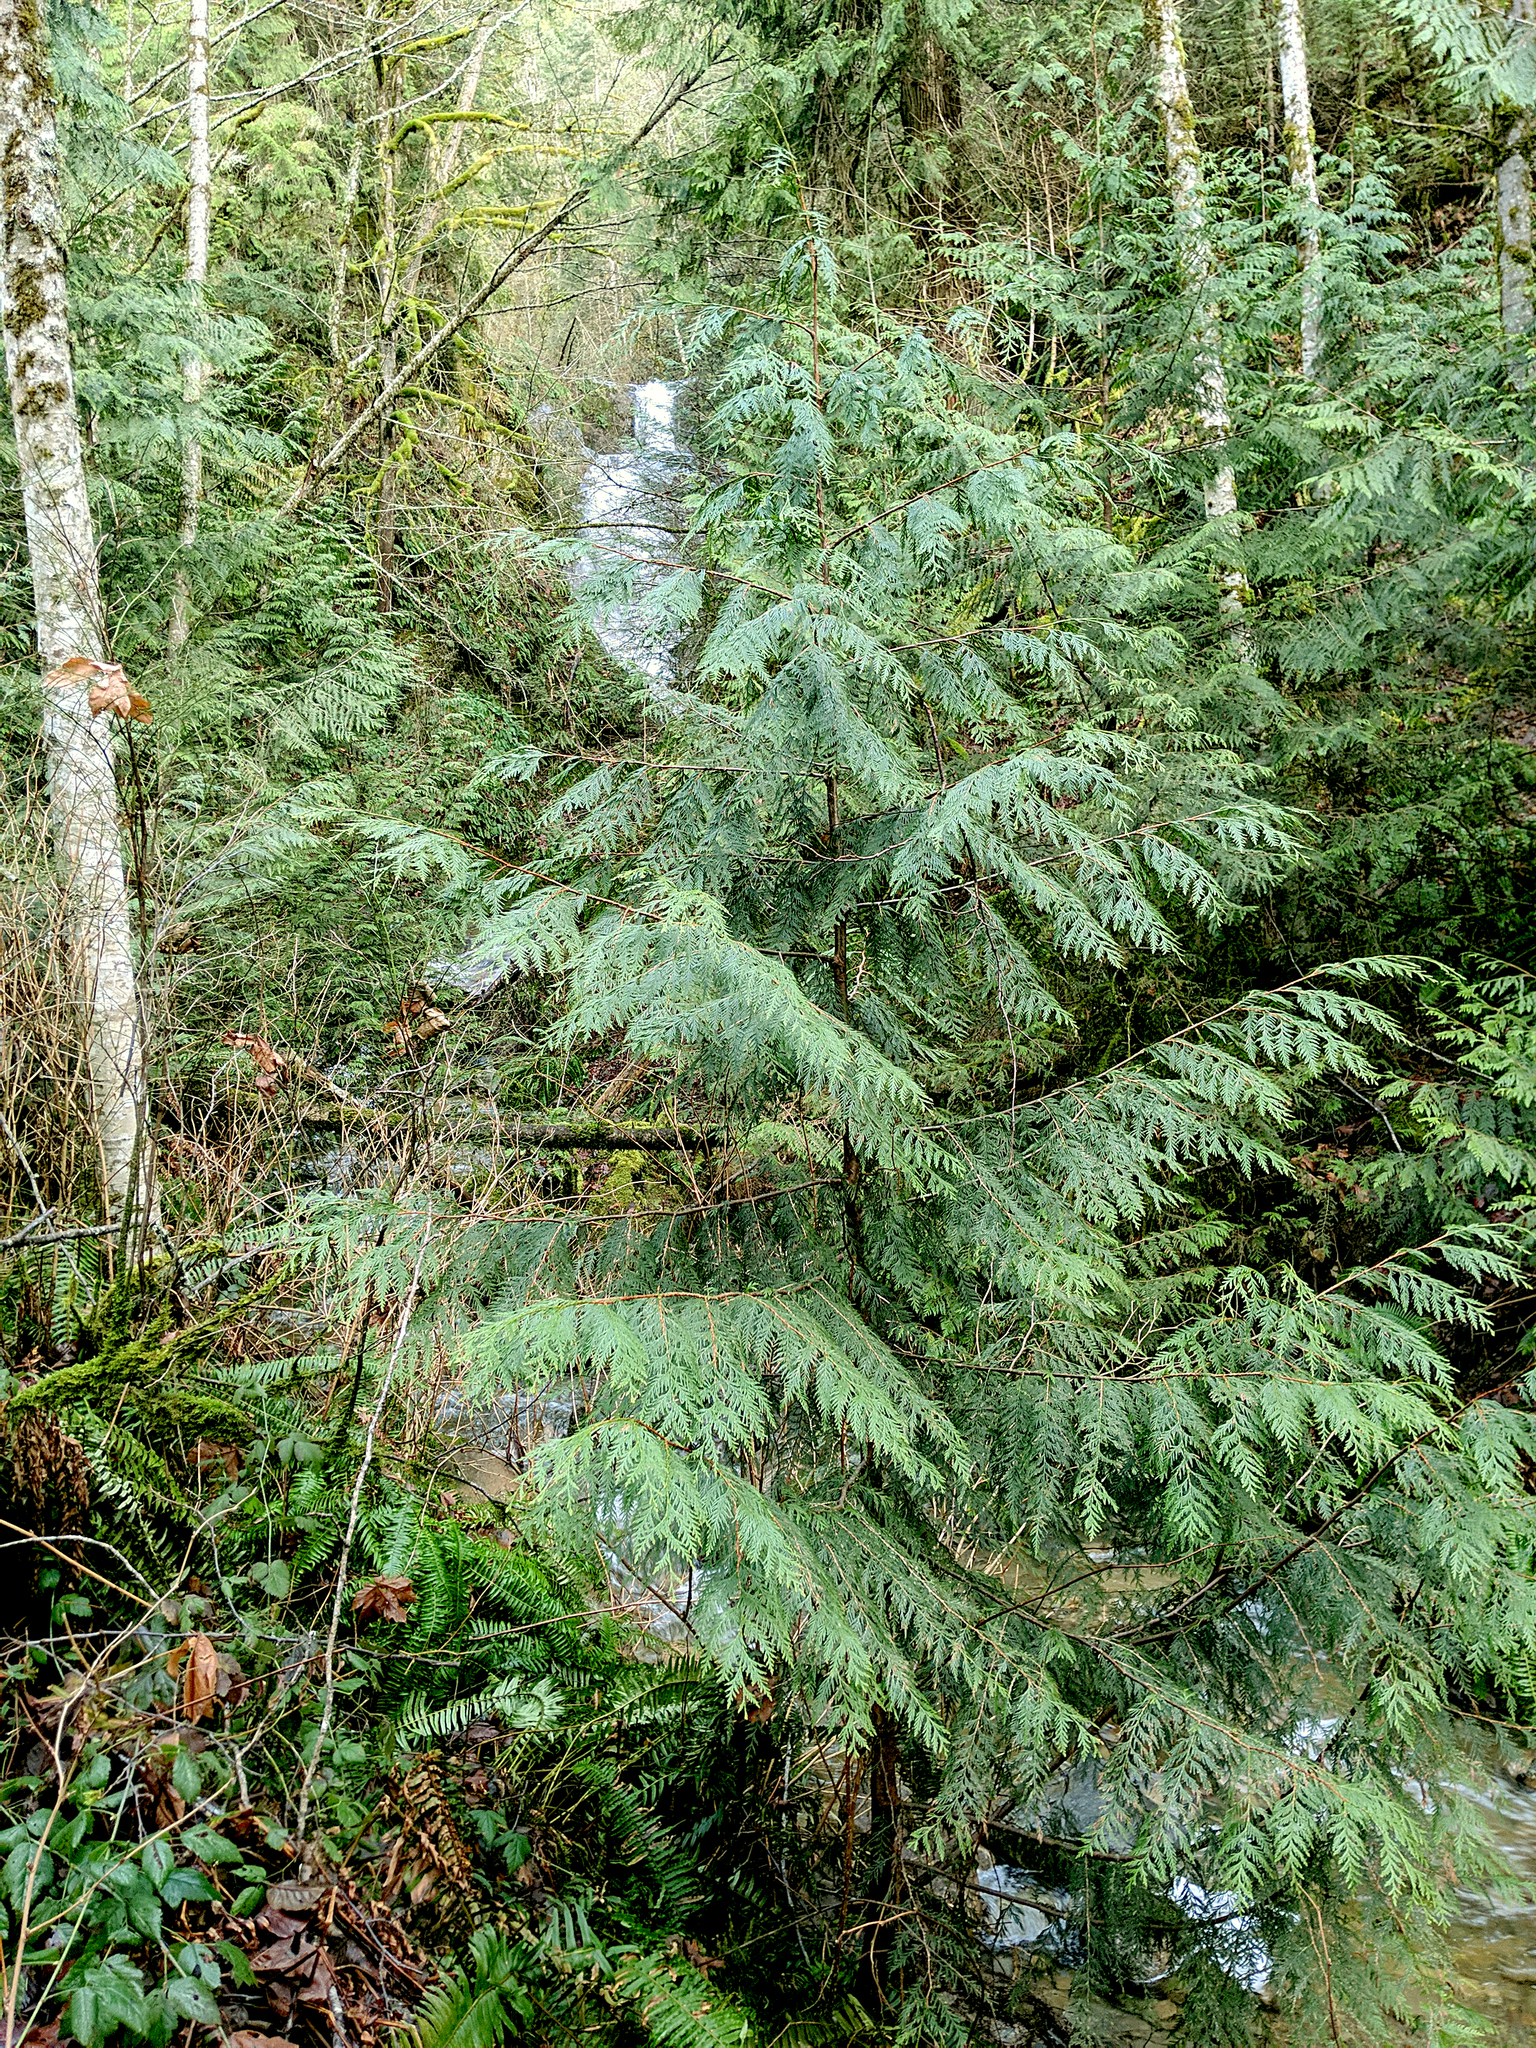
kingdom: Plantae
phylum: Tracheophyta
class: Pinopsida
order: Pinales
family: Cupressaceae
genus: Thuja
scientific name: Thuja plicata
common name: Western red-cedar
